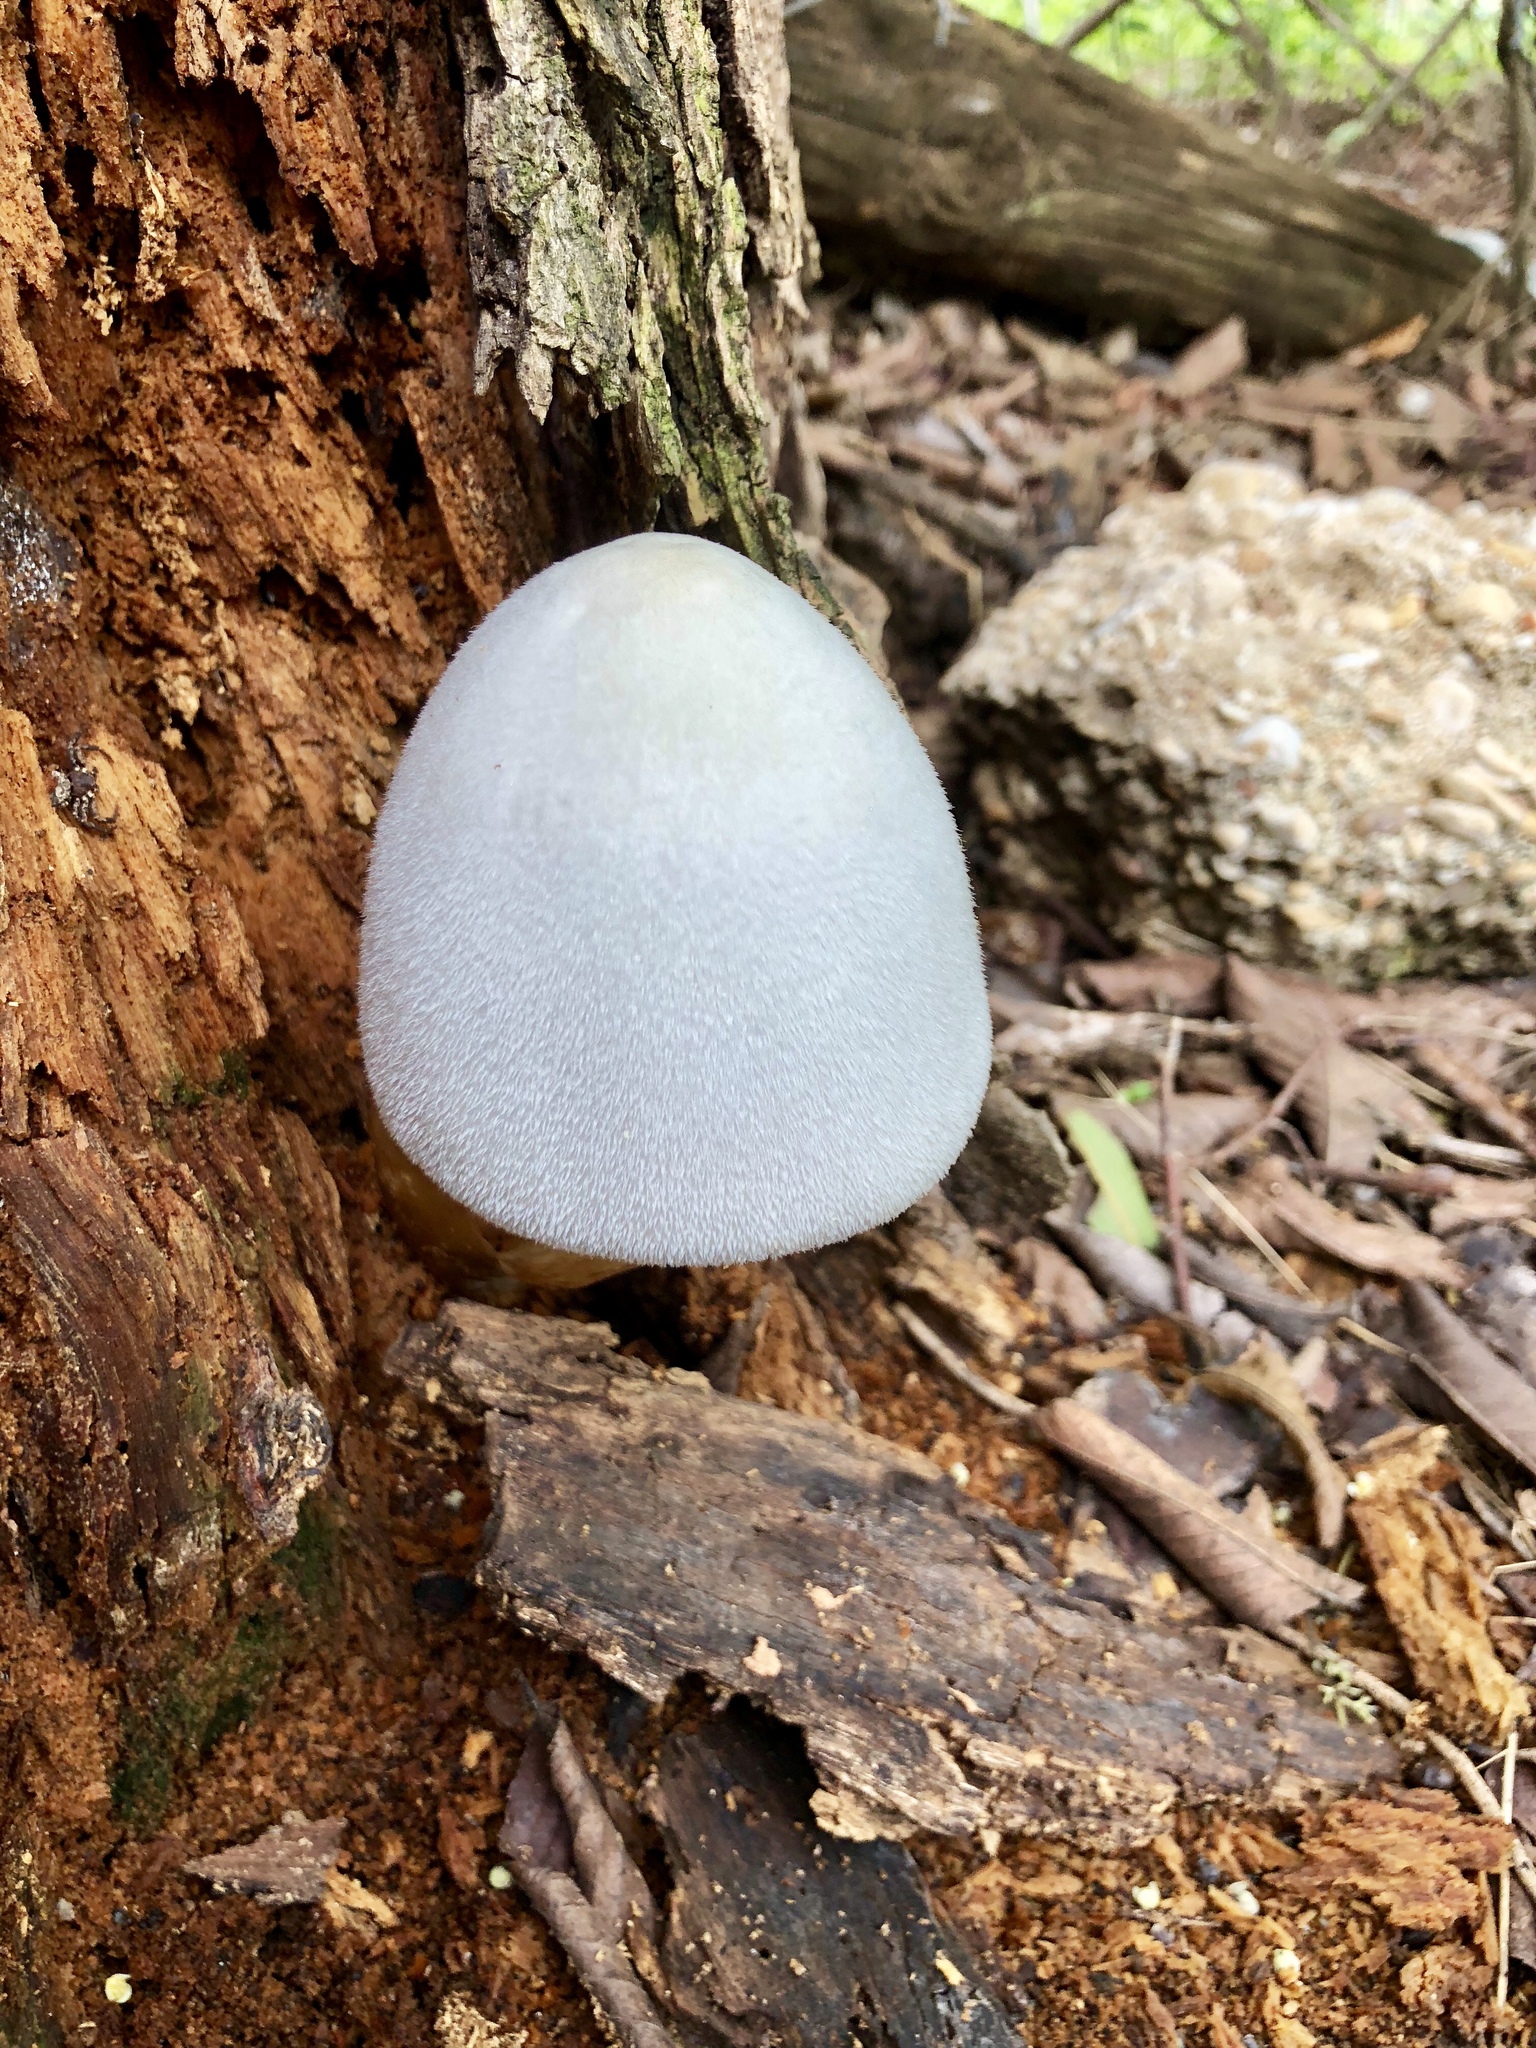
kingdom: Fungi
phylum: Basidiomycota
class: Agaricomycetes
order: Agaricales
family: Pluteaceae
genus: Volvariella
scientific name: Volvariella bombycina
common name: Silky rosegill
